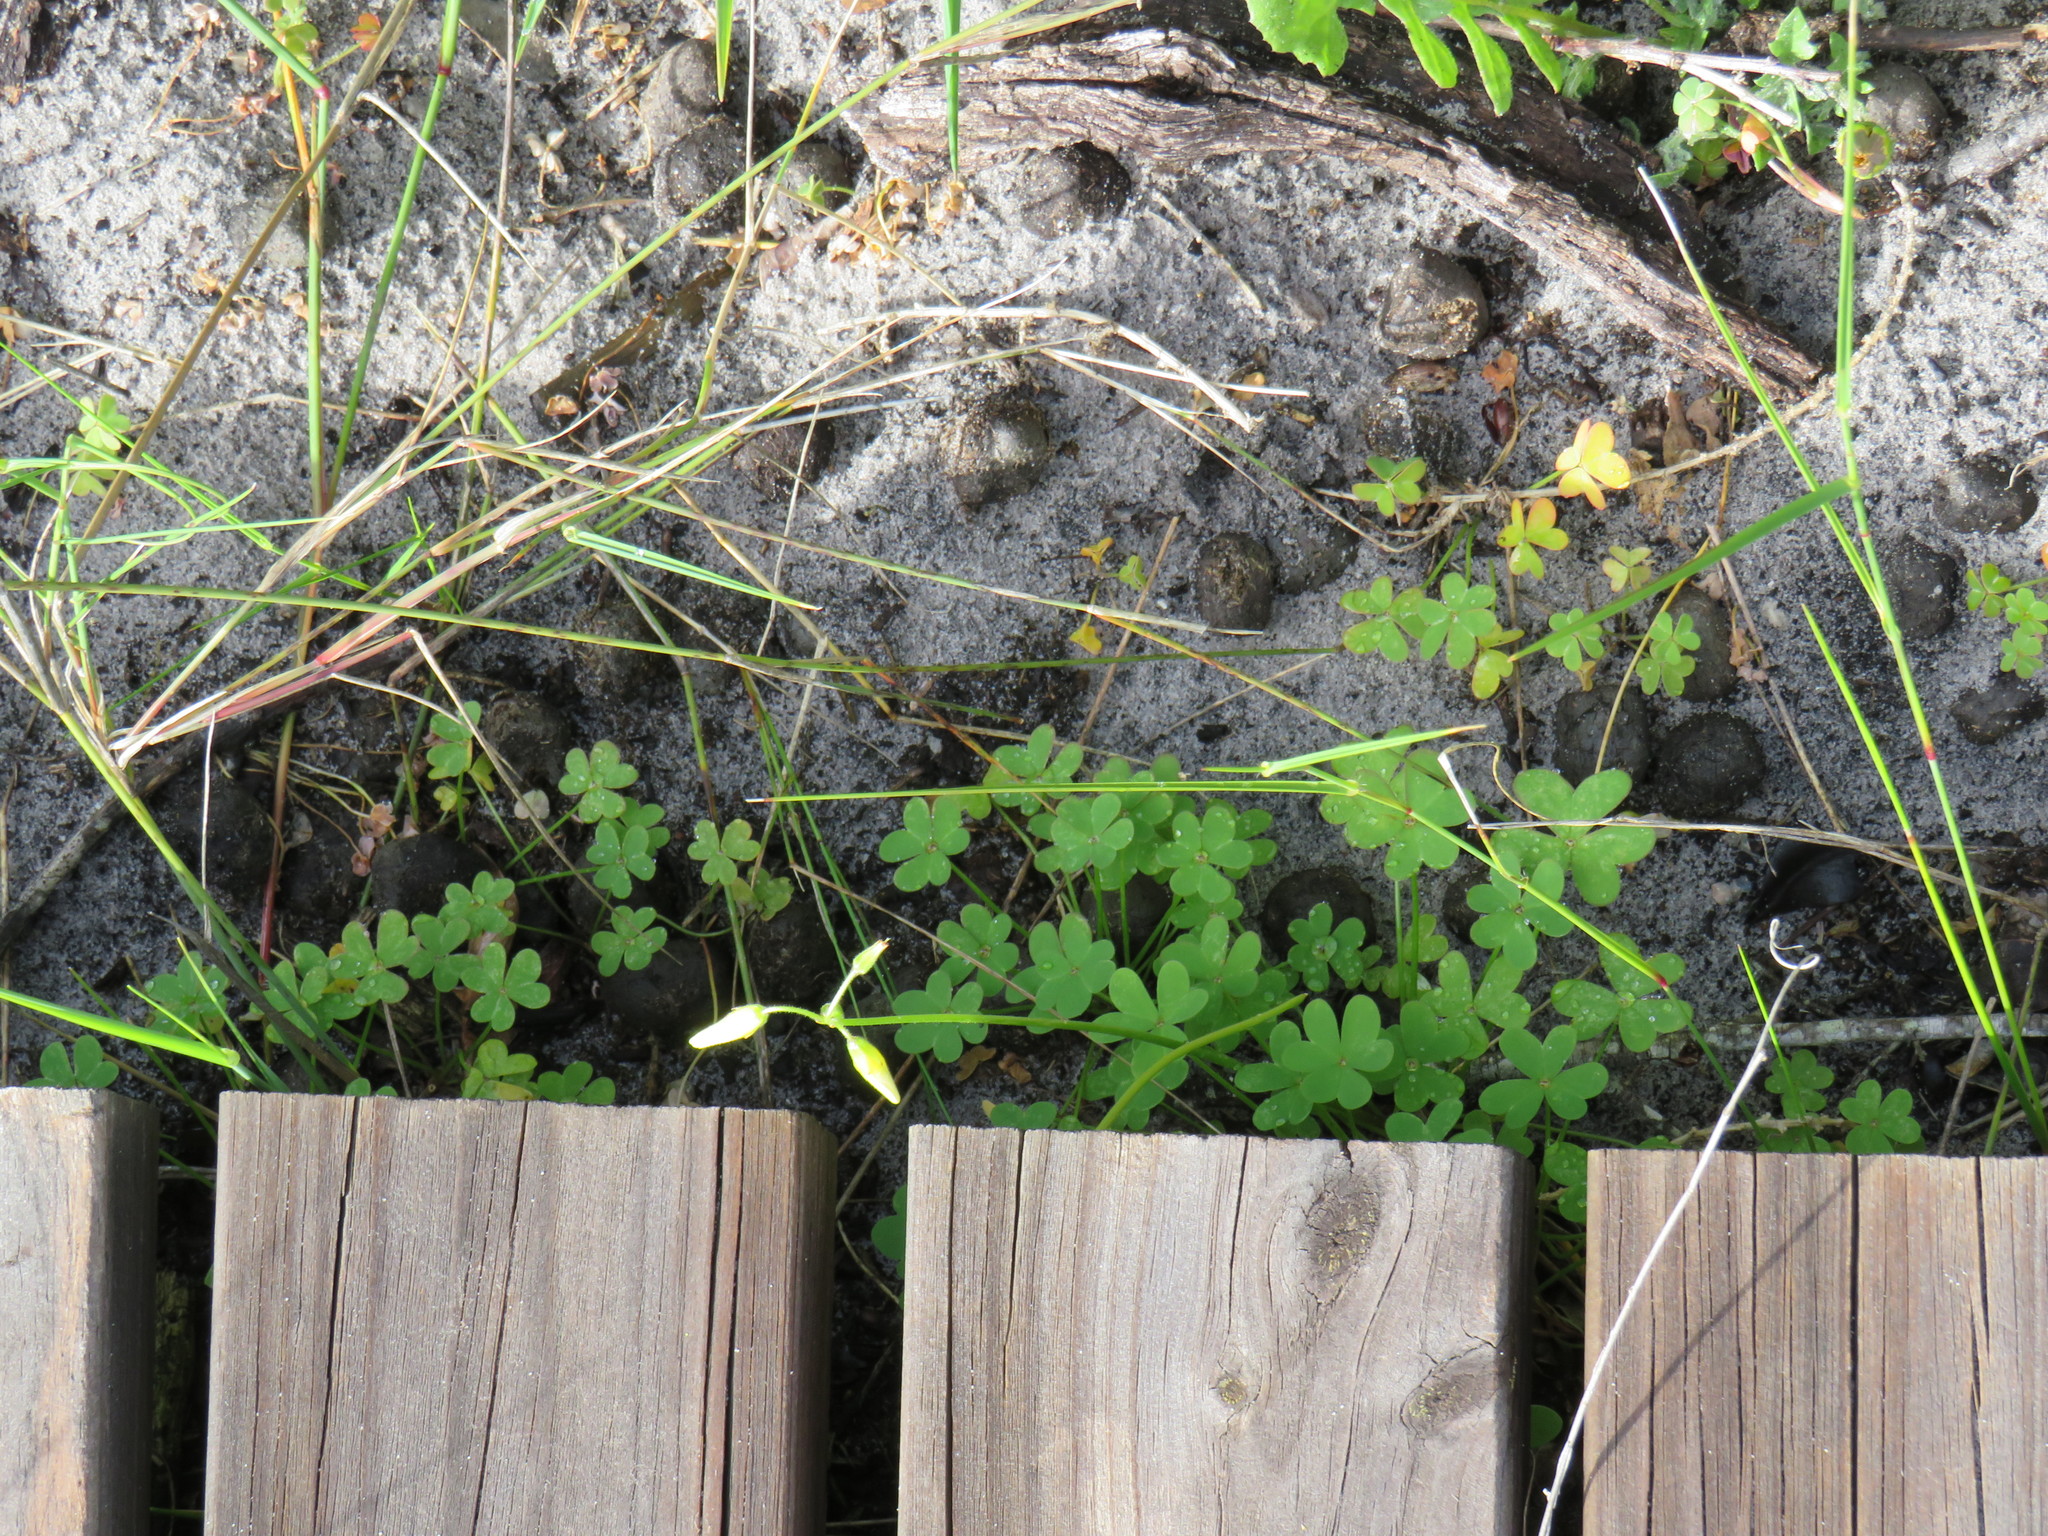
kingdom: Plantae
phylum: Tracheophyta
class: Magnoliopsida
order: Oxalidales
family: Oxalidaceae
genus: Oxalis
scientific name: Oxalis pes-caprae
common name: Bermuda-buttercup
